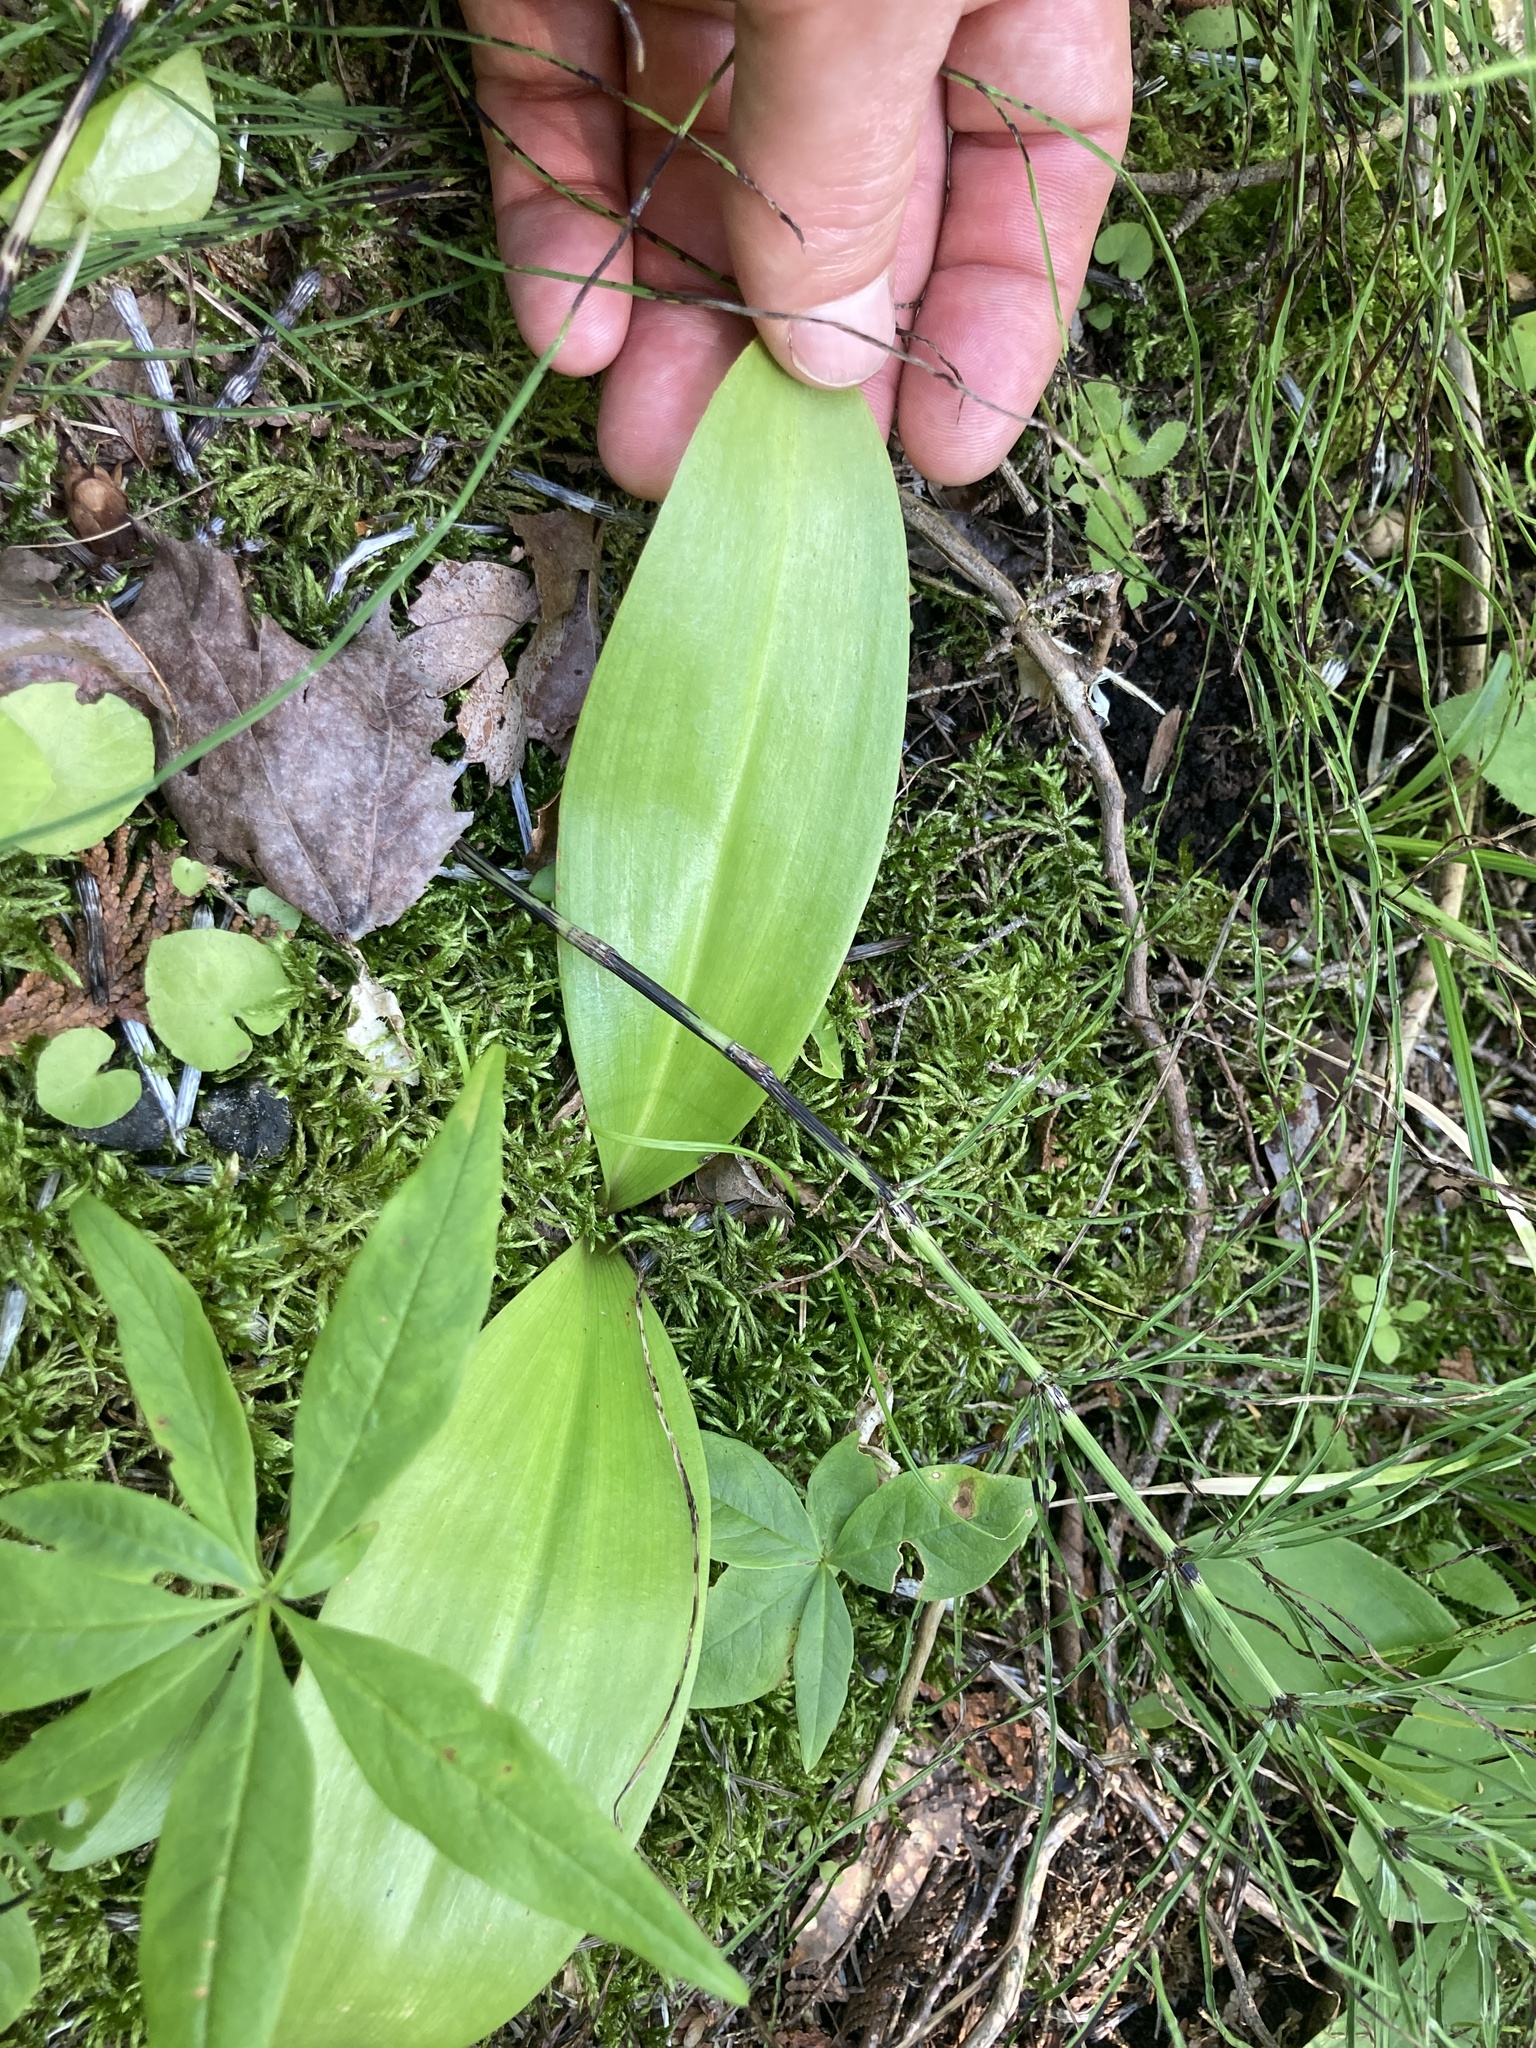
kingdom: Plantae
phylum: Tracheophyta
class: Liliopsida
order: Liliales
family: Liliaceae
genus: Clintonia
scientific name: Clintonia borealis
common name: Yellow clintonia
